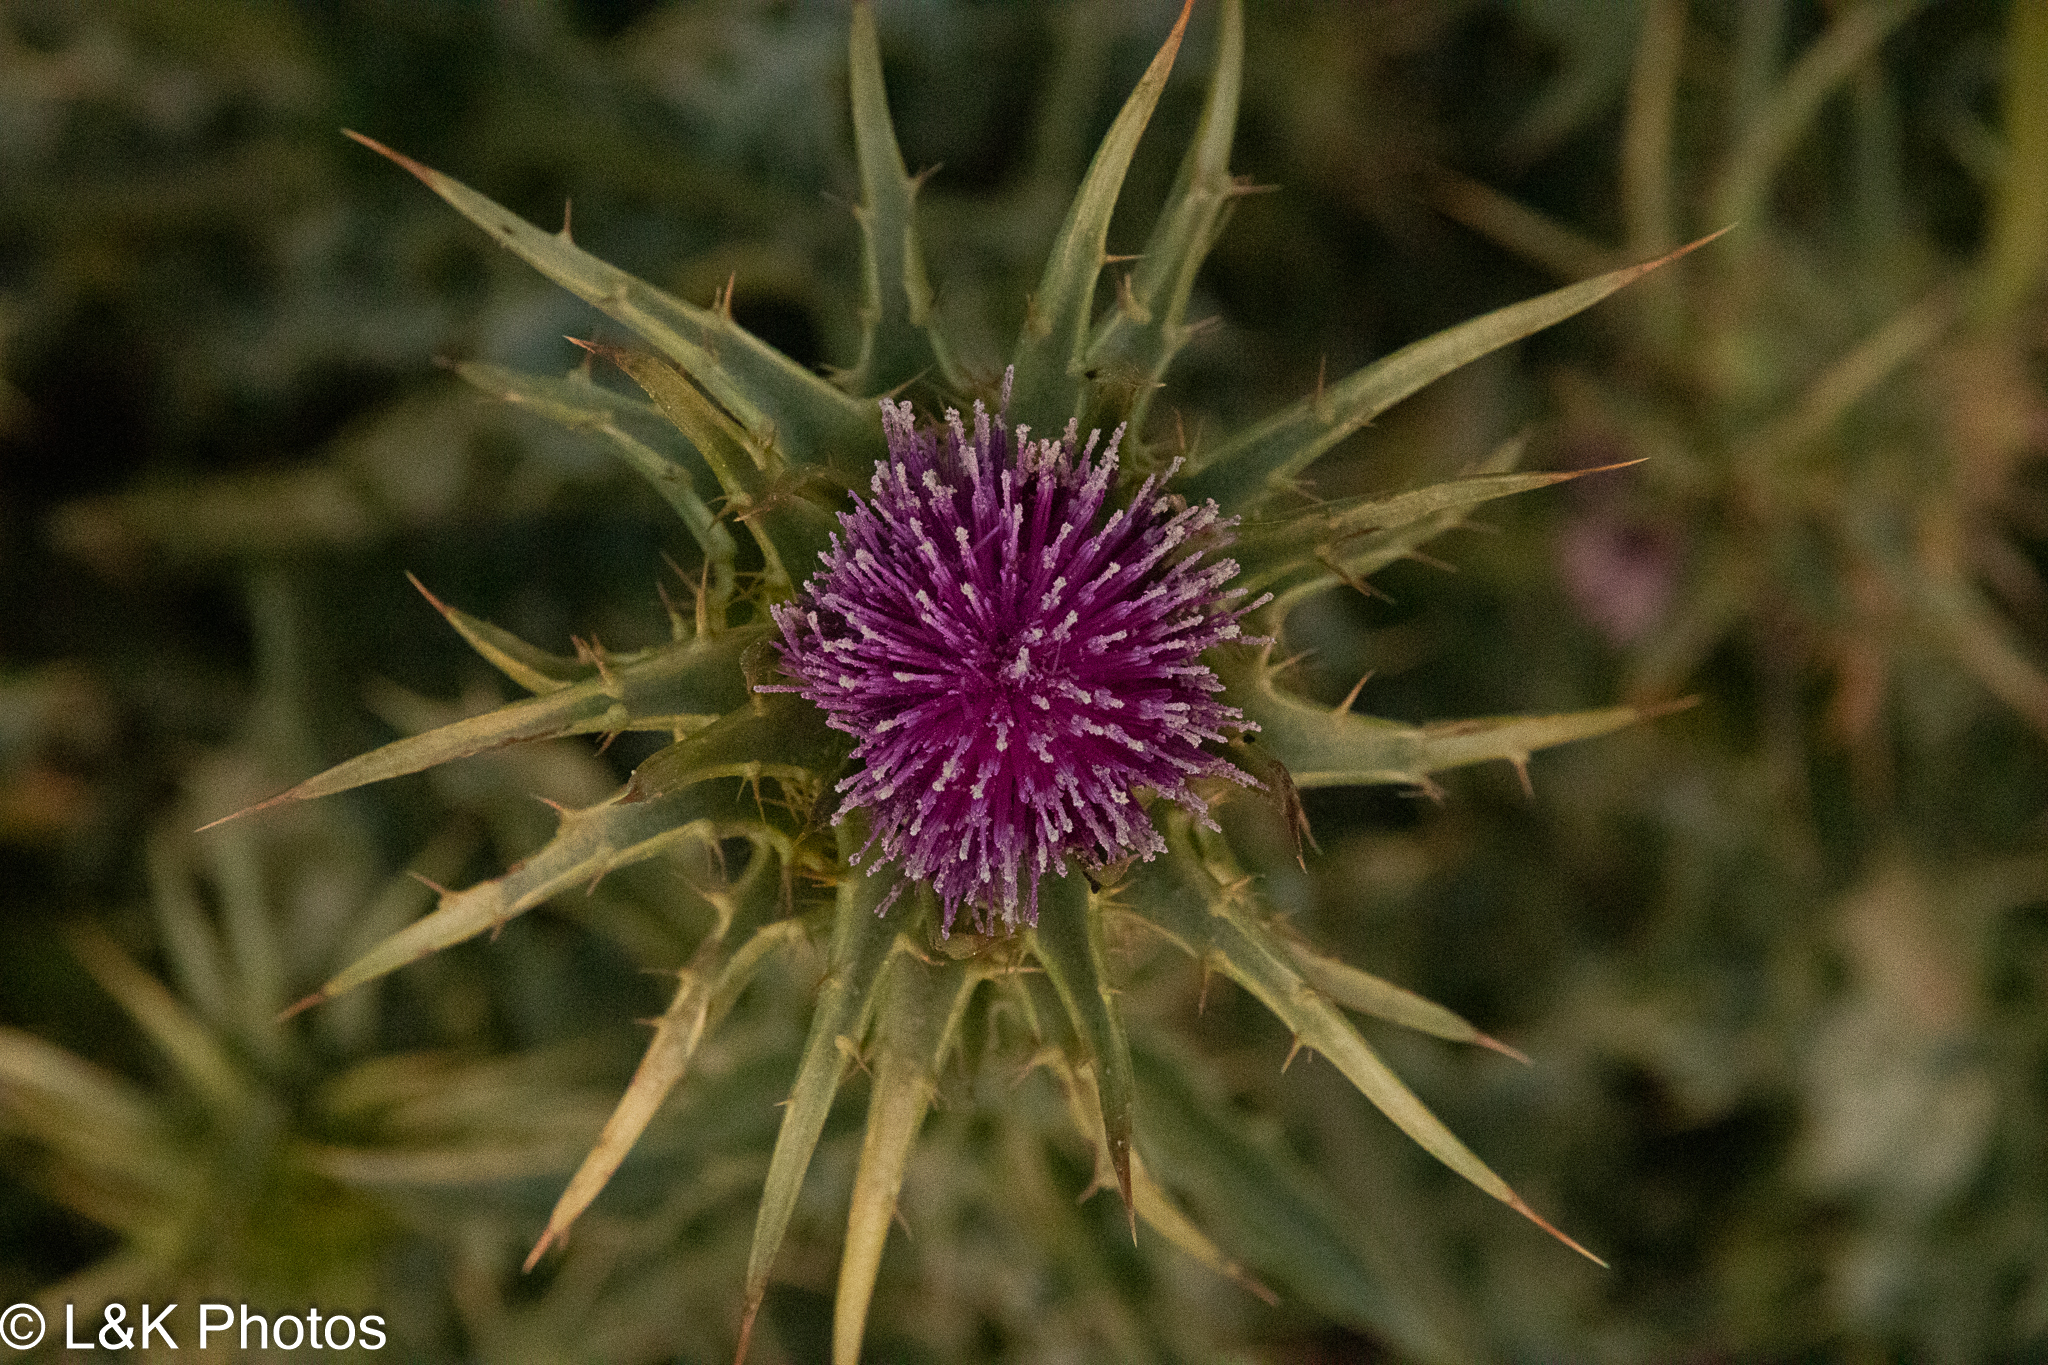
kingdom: Plantae
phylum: Tracheophyta
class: Magnoliopsida
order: Asterales
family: Asteraceae
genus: Silybum
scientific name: Silybum marianum
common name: Milk thistle
